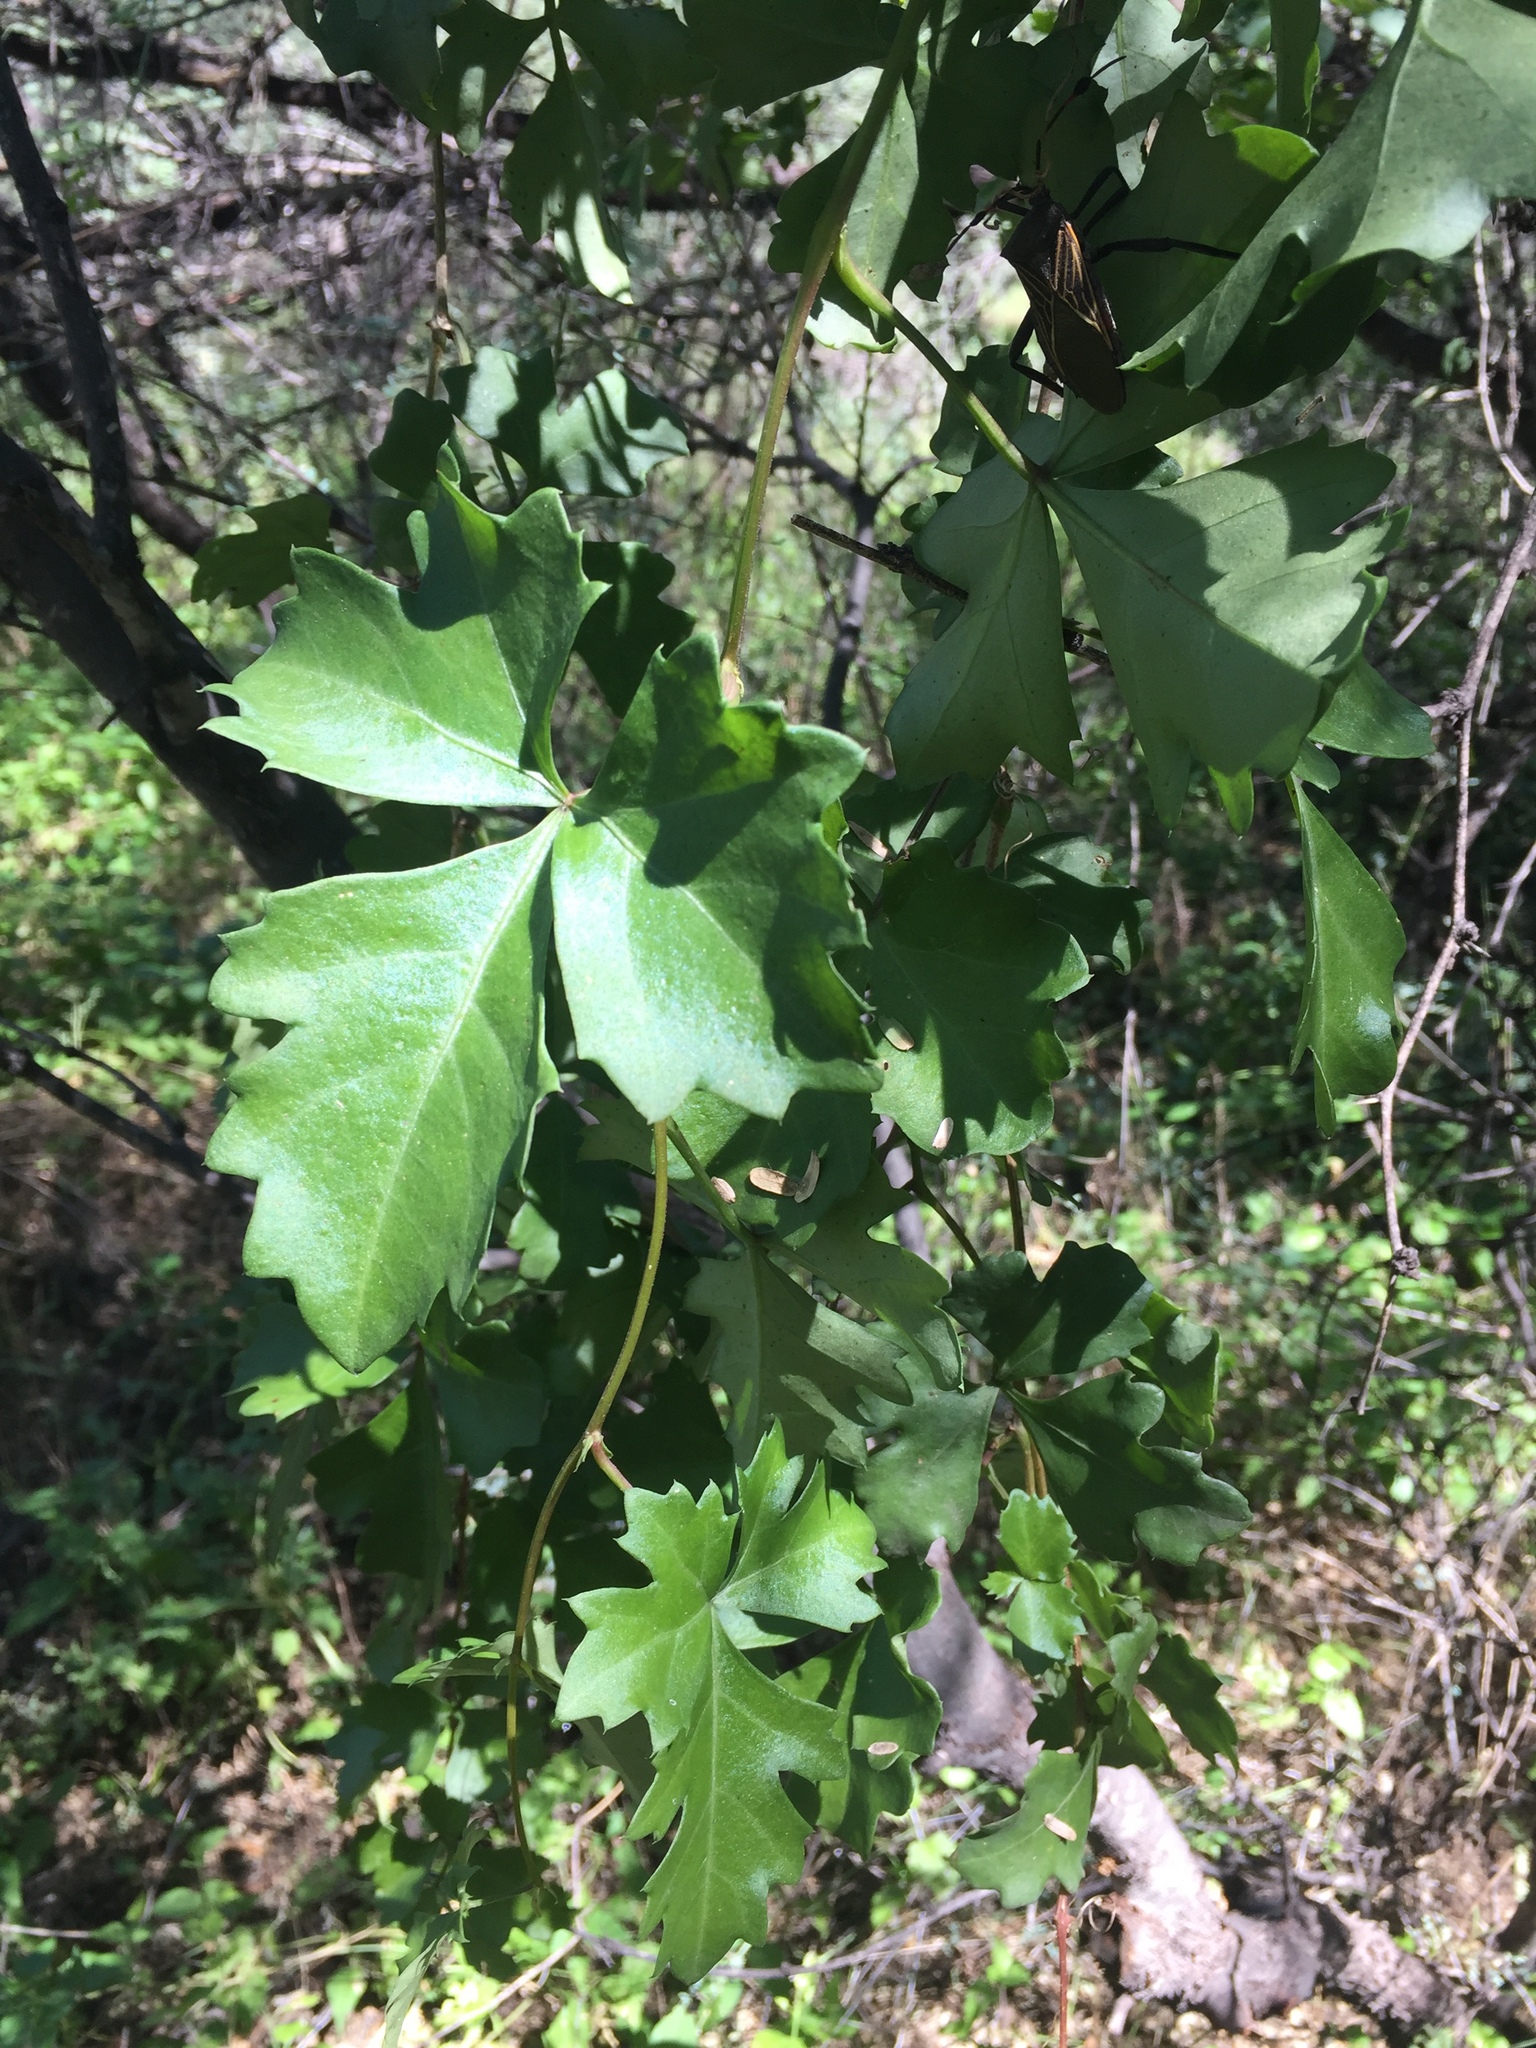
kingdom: Plantae
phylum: Tracheophyta
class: Magnoliopsida
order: Vitales
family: Vitaceae
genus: Cissus
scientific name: Cissus trifoliata
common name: Vine-sorrel
